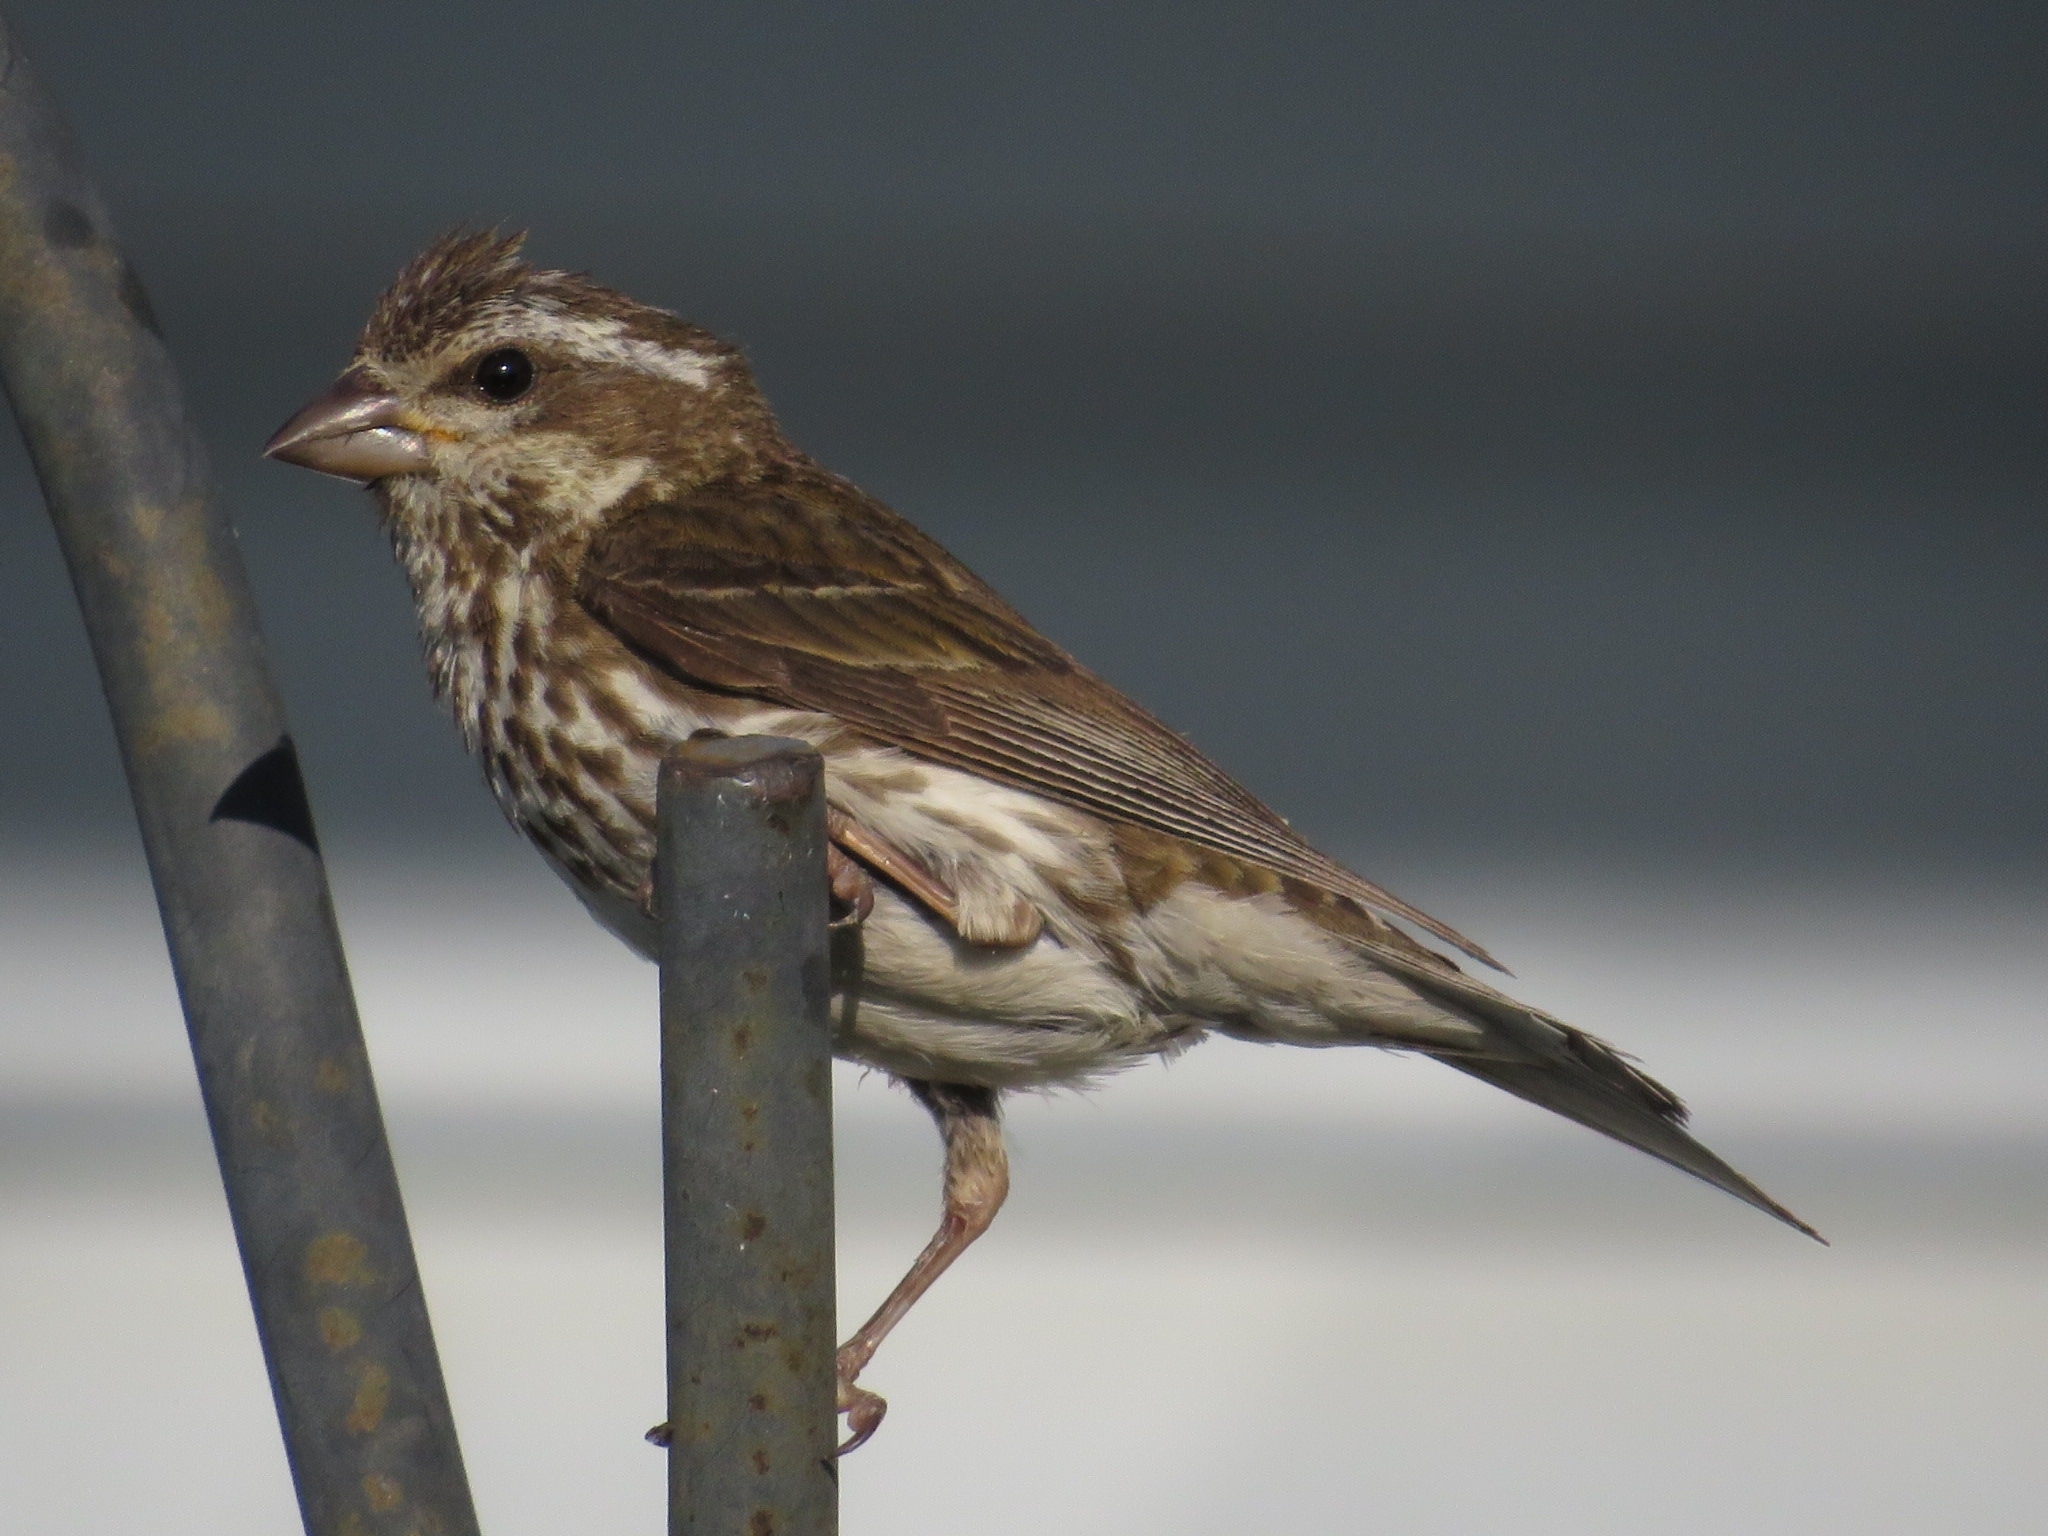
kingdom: Animalia
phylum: Chordata
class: Aves
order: Passeriformes
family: Fringillidae
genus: Haemorhous
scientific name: Haemorhous purpureus
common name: Purple finch
